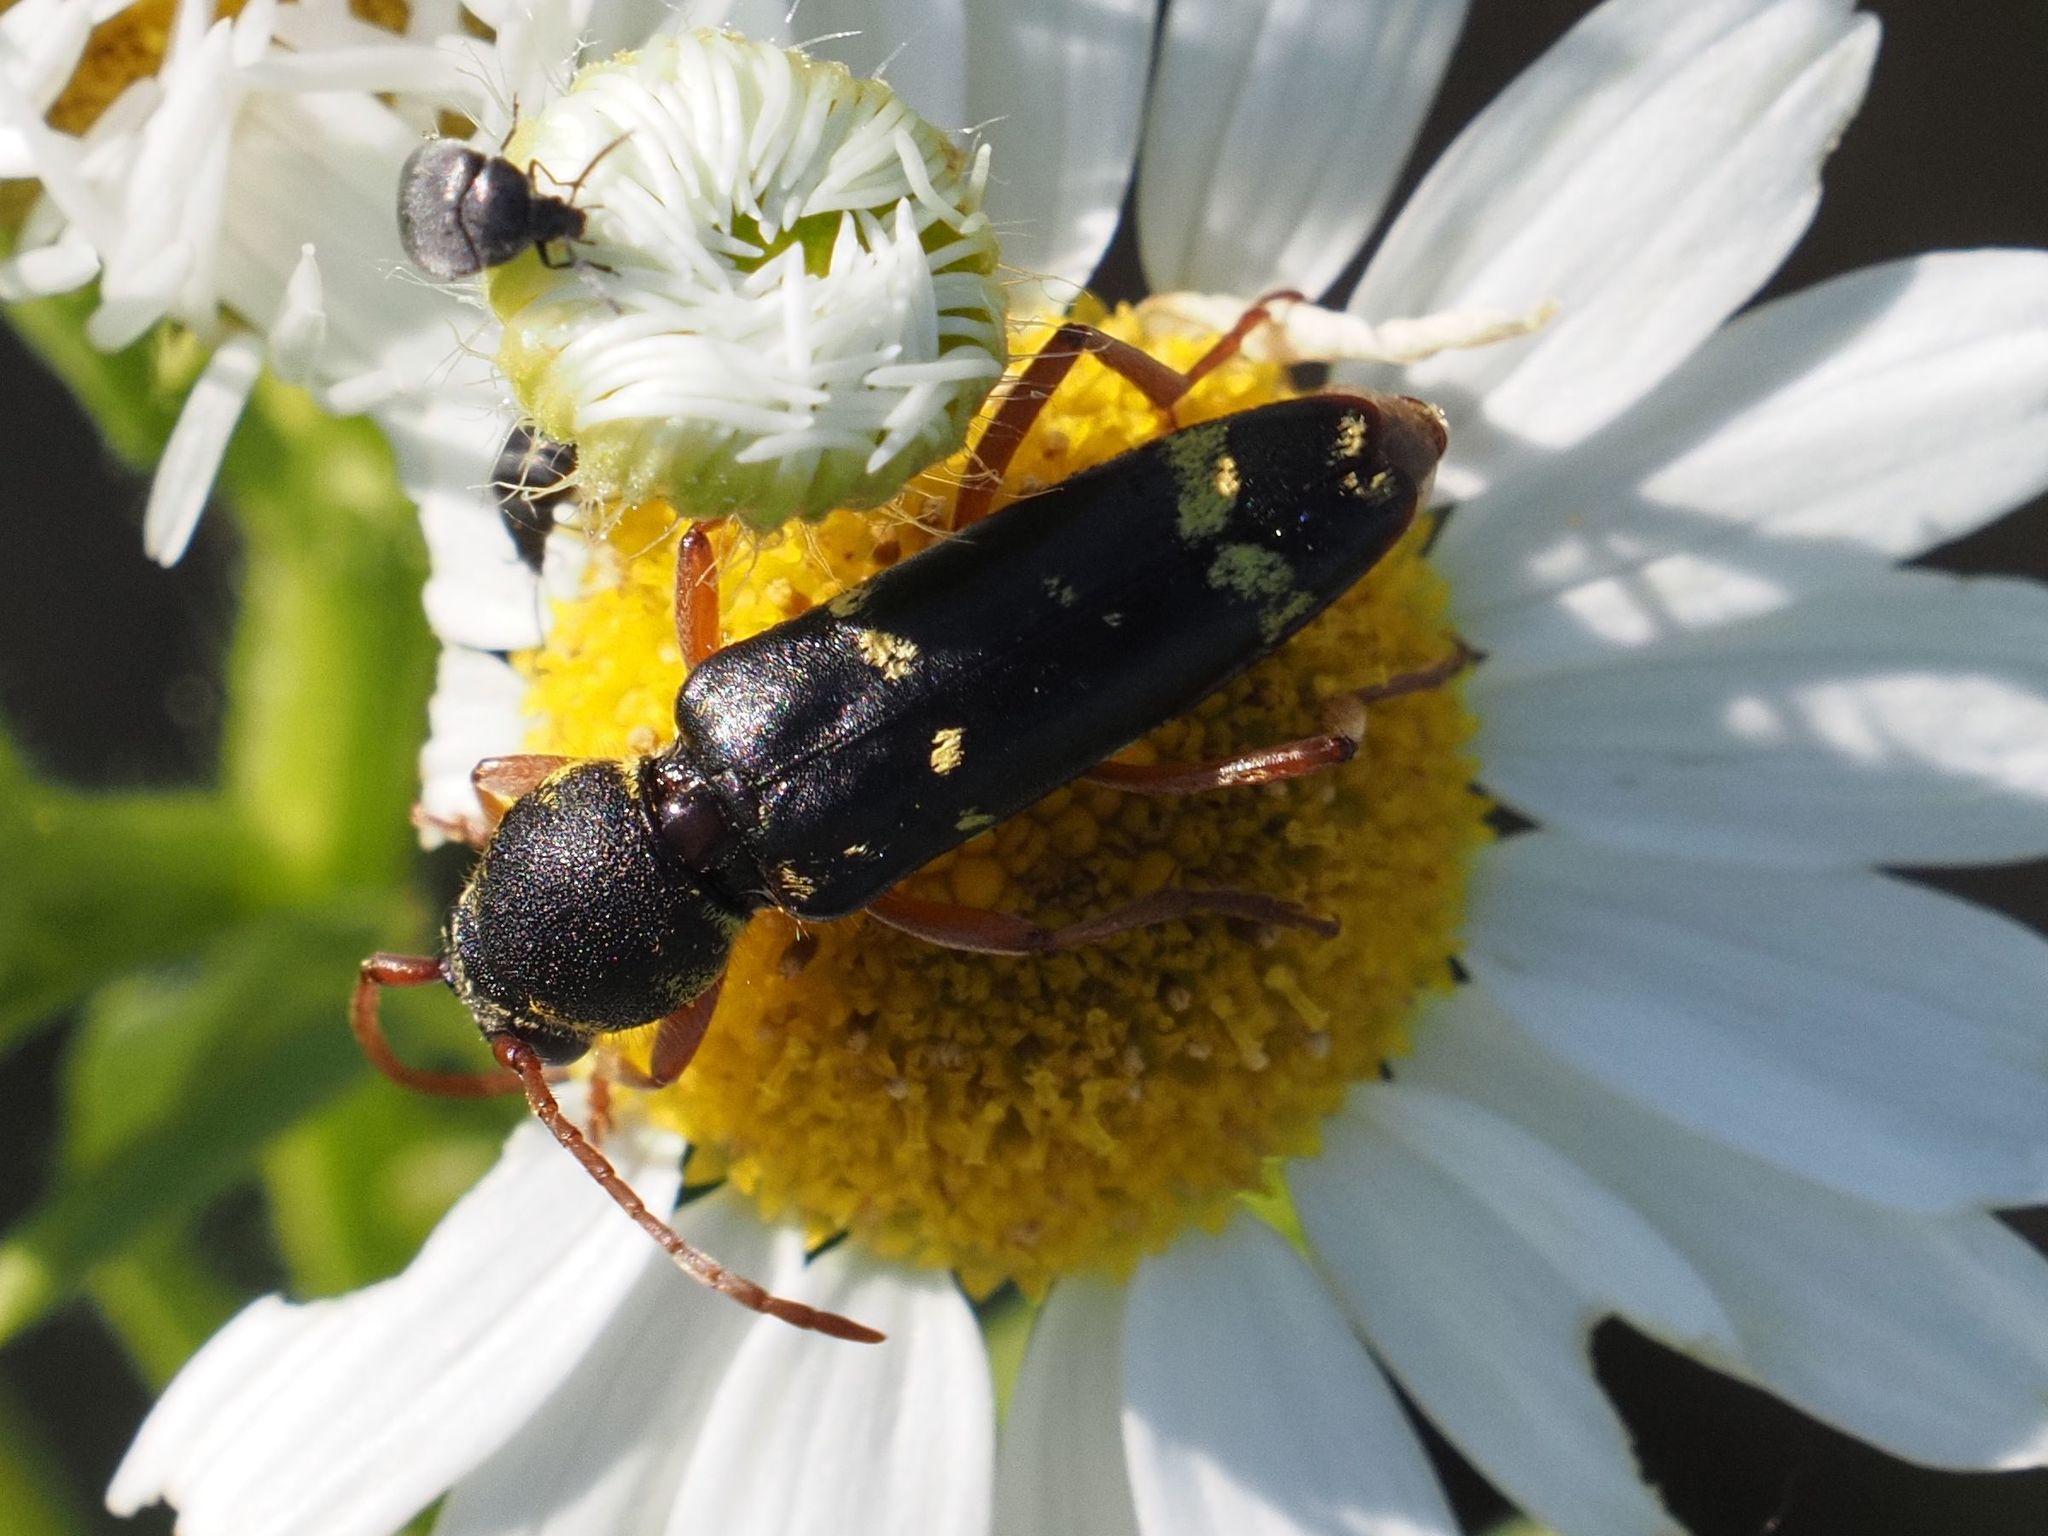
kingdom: Animalia
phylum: Arthropoda
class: Insecta
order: Coleoptera
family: Cerambycidae
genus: Plagionotus
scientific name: Plagionotus floralis
